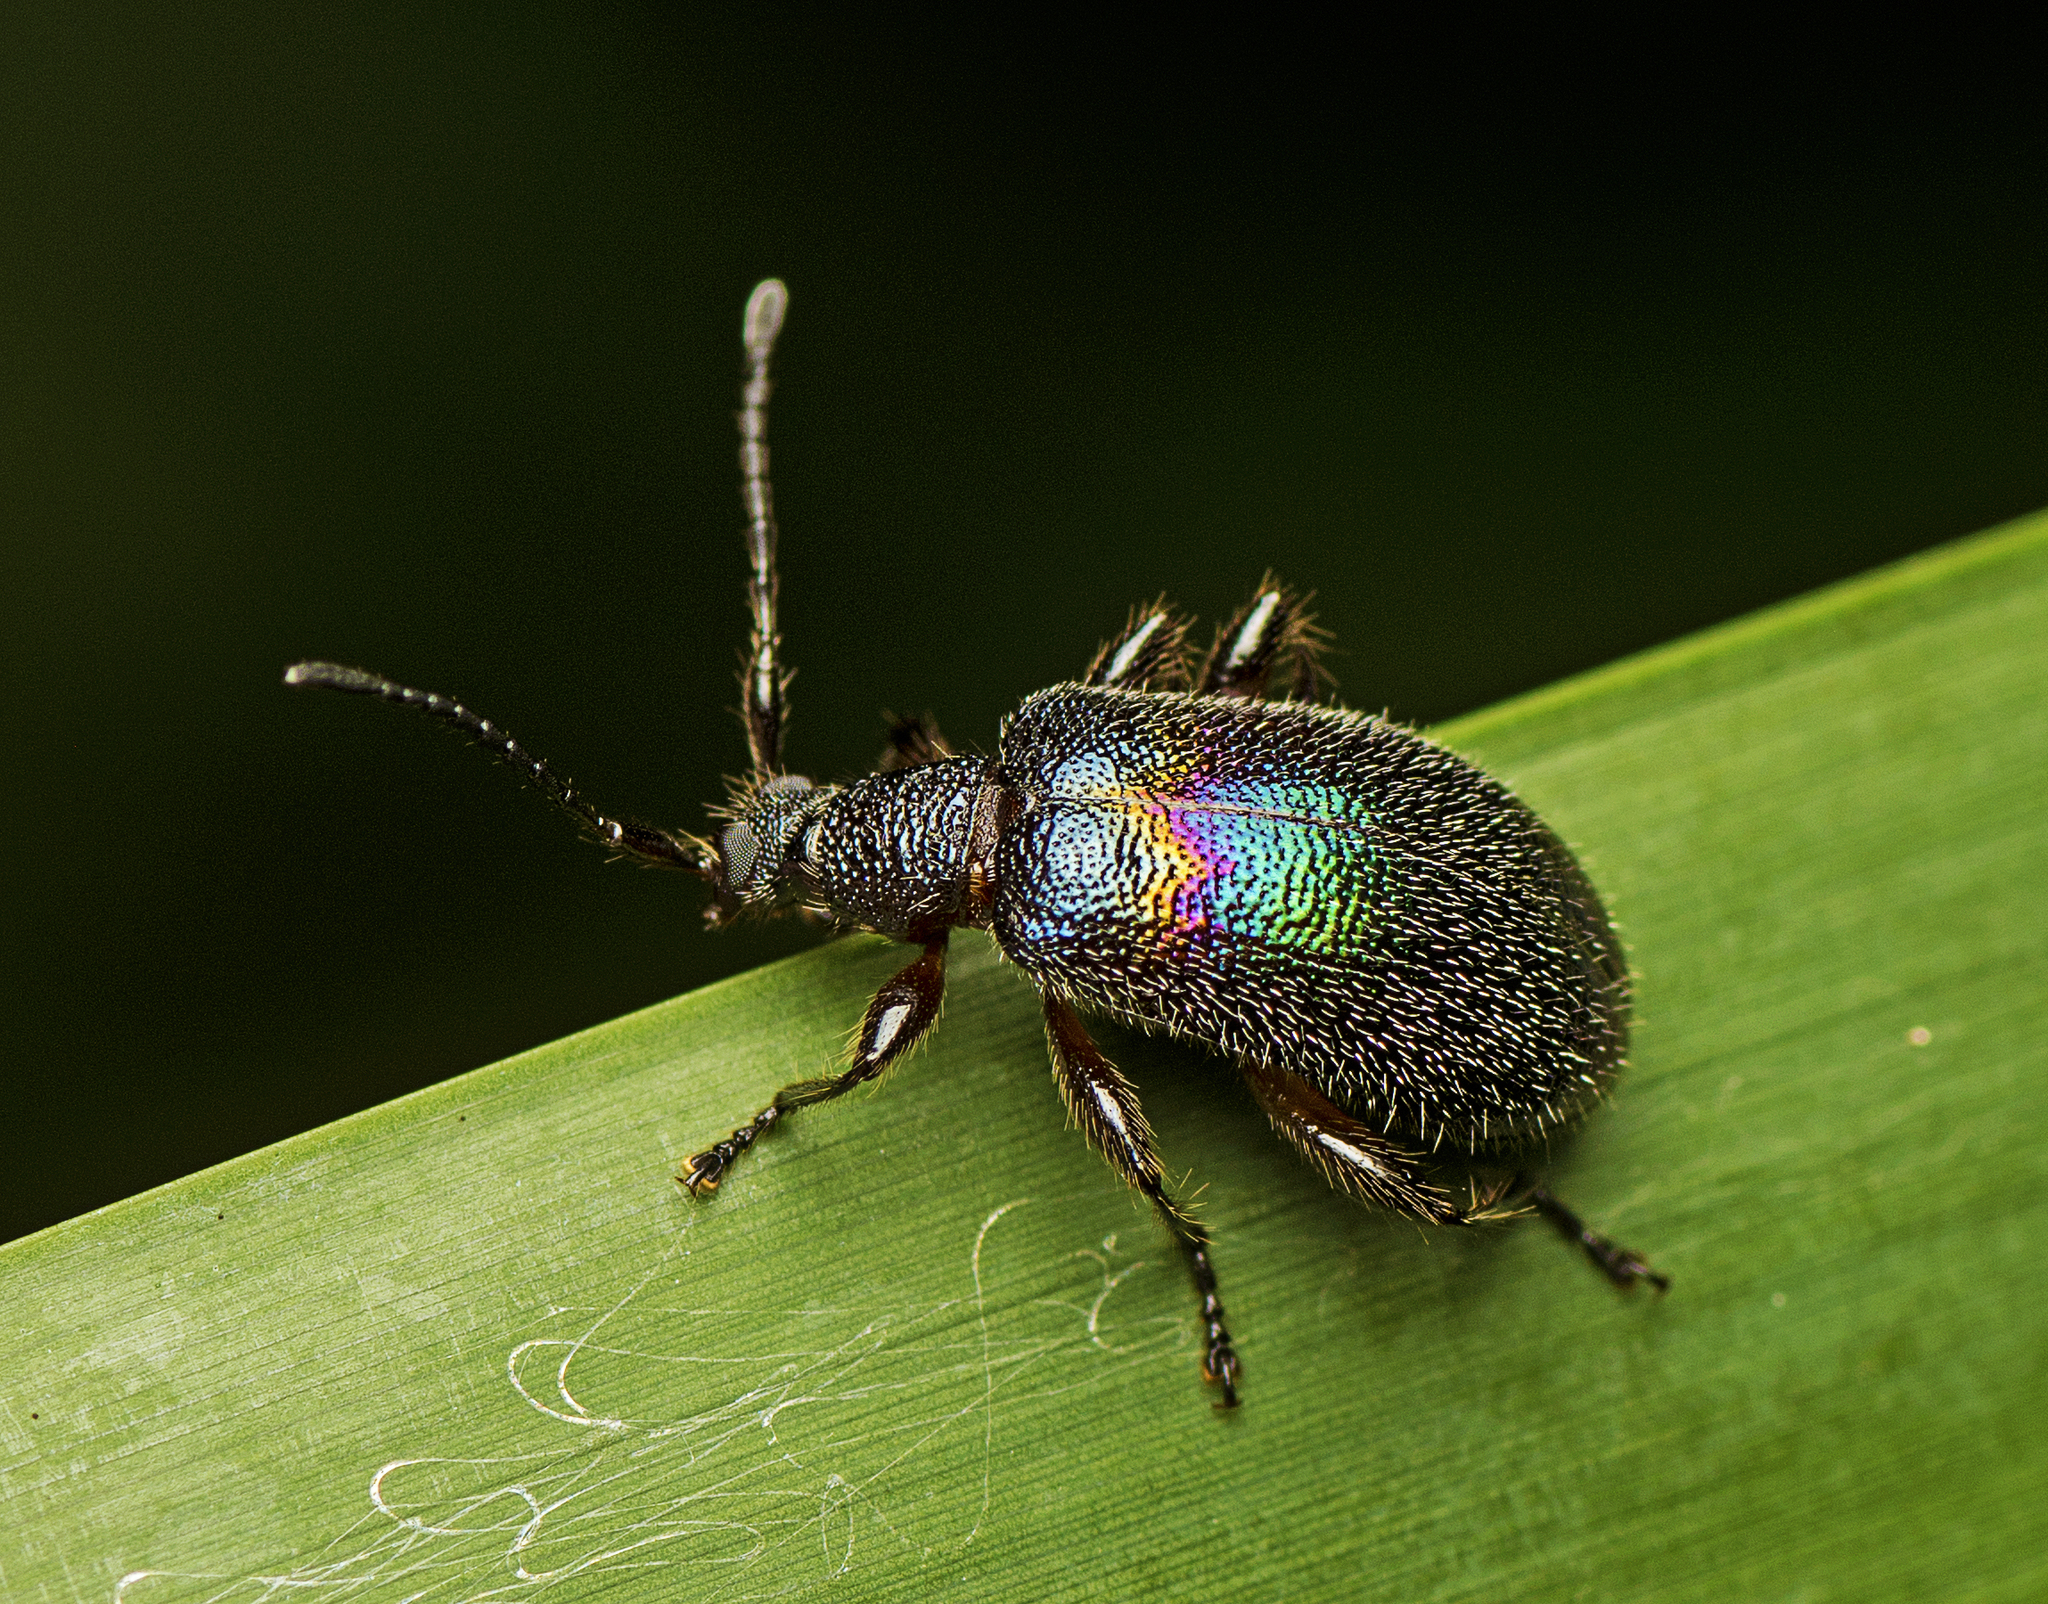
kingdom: Animalia
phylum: Arthropoda
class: Insecta
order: Coleoptera
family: Tenebrionidae
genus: Ecnolagria
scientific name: Ecnolagria
